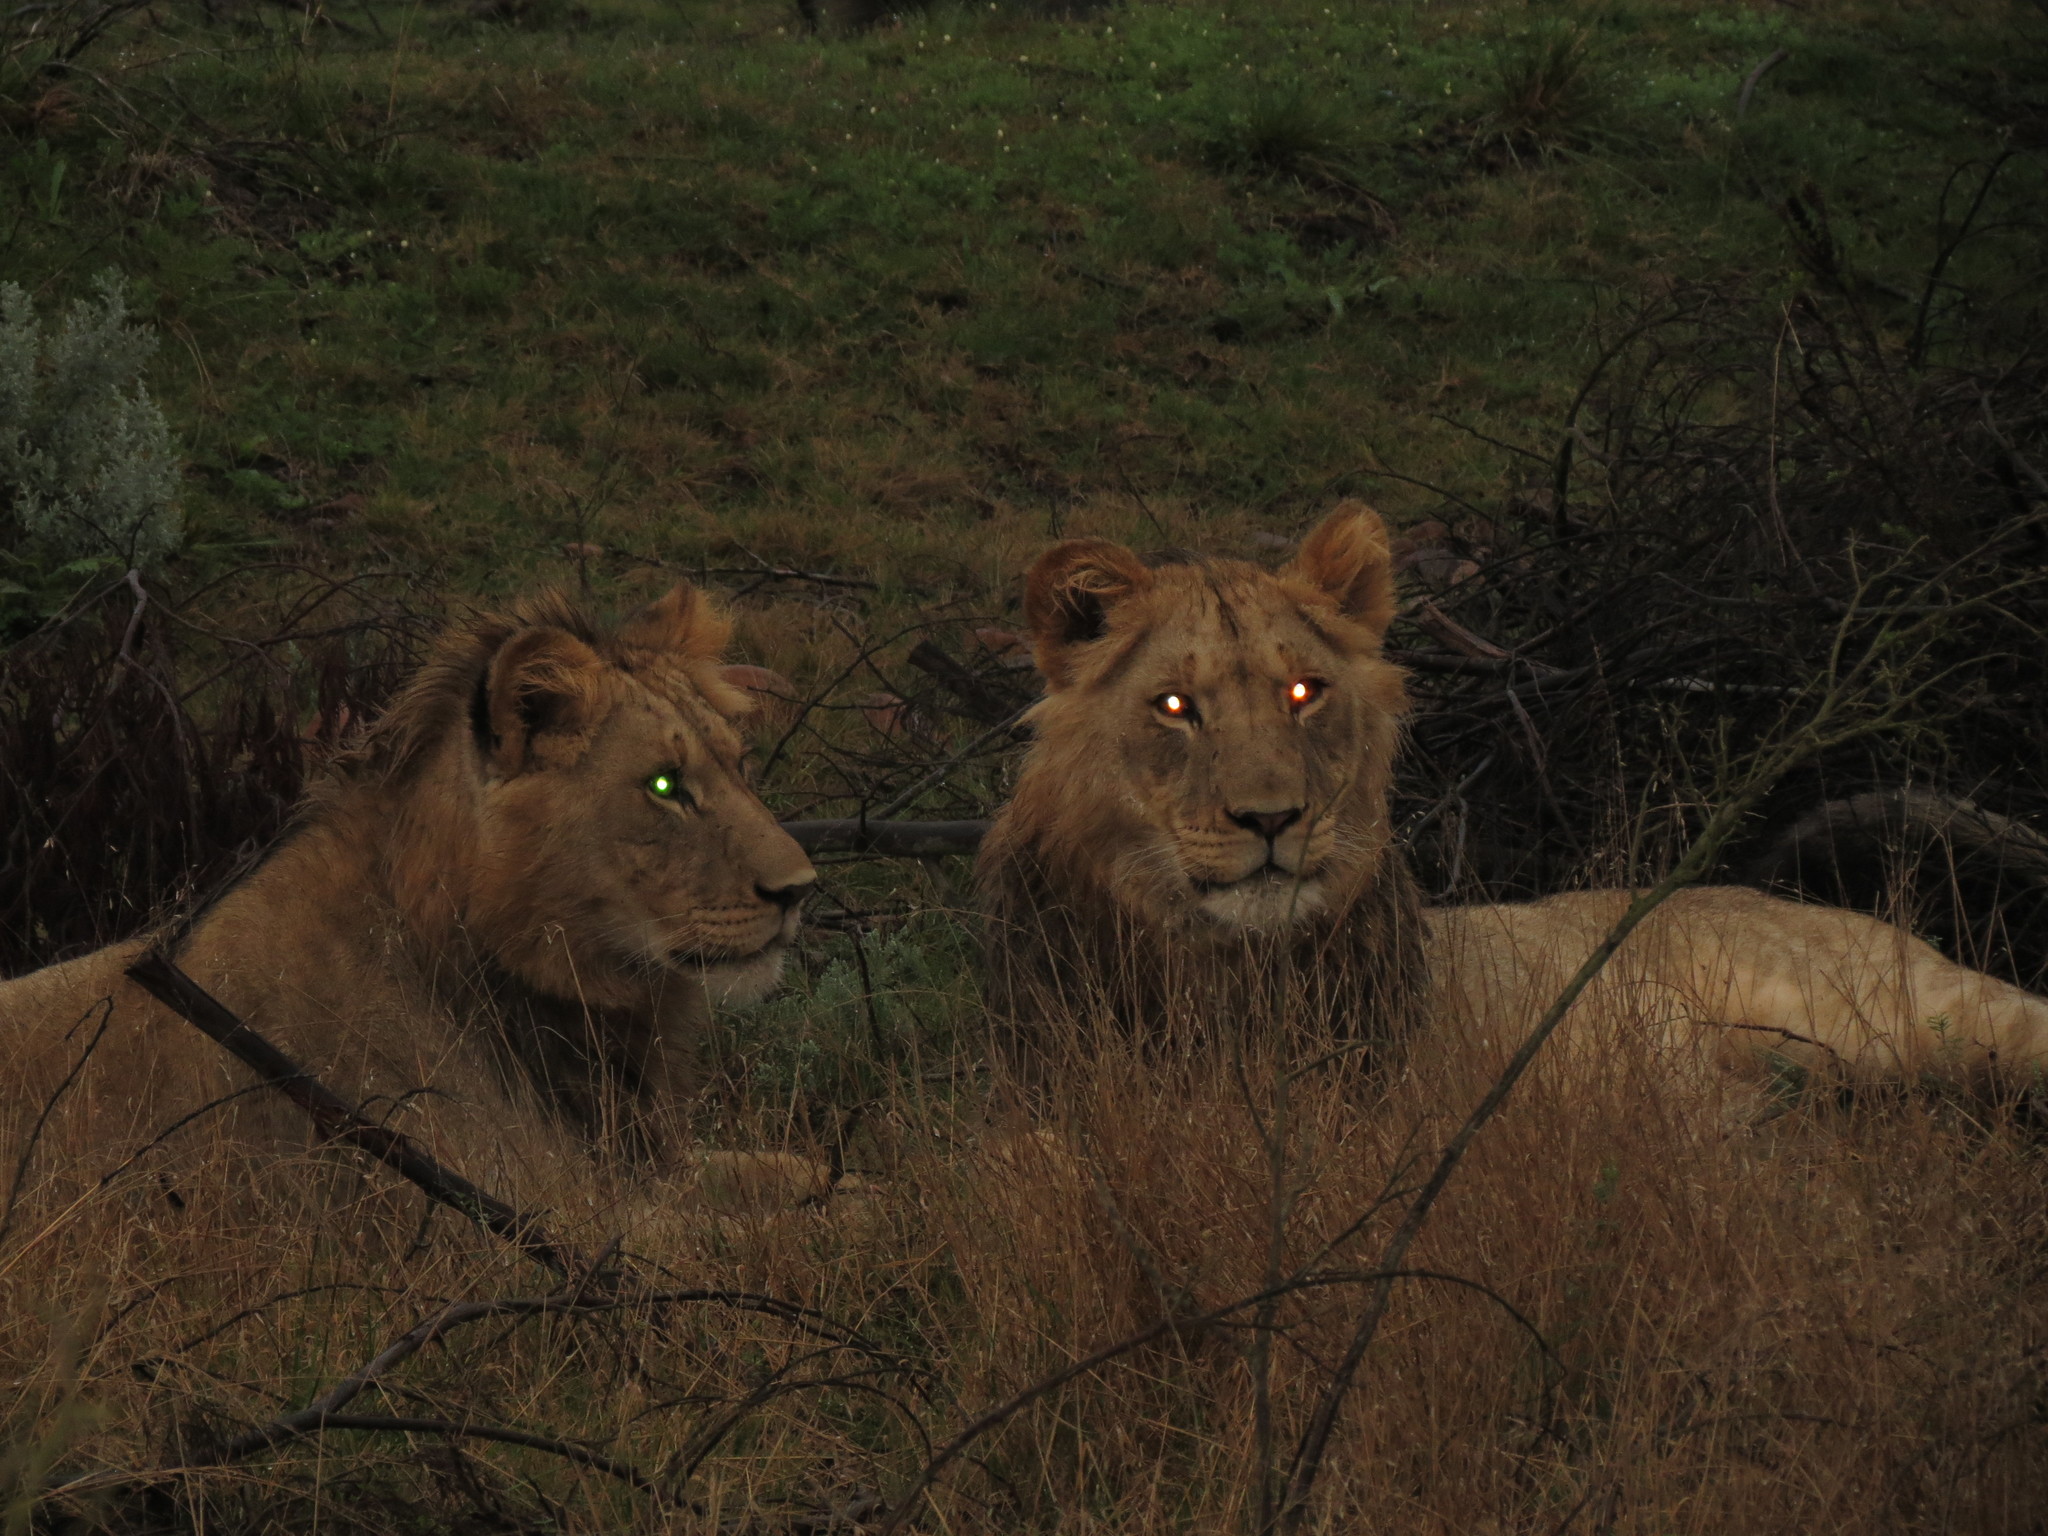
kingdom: Animalia
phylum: Chordata
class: Mammalia
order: Carnivora
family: Felidae
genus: Panthera
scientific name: Panthera leo
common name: Lion
